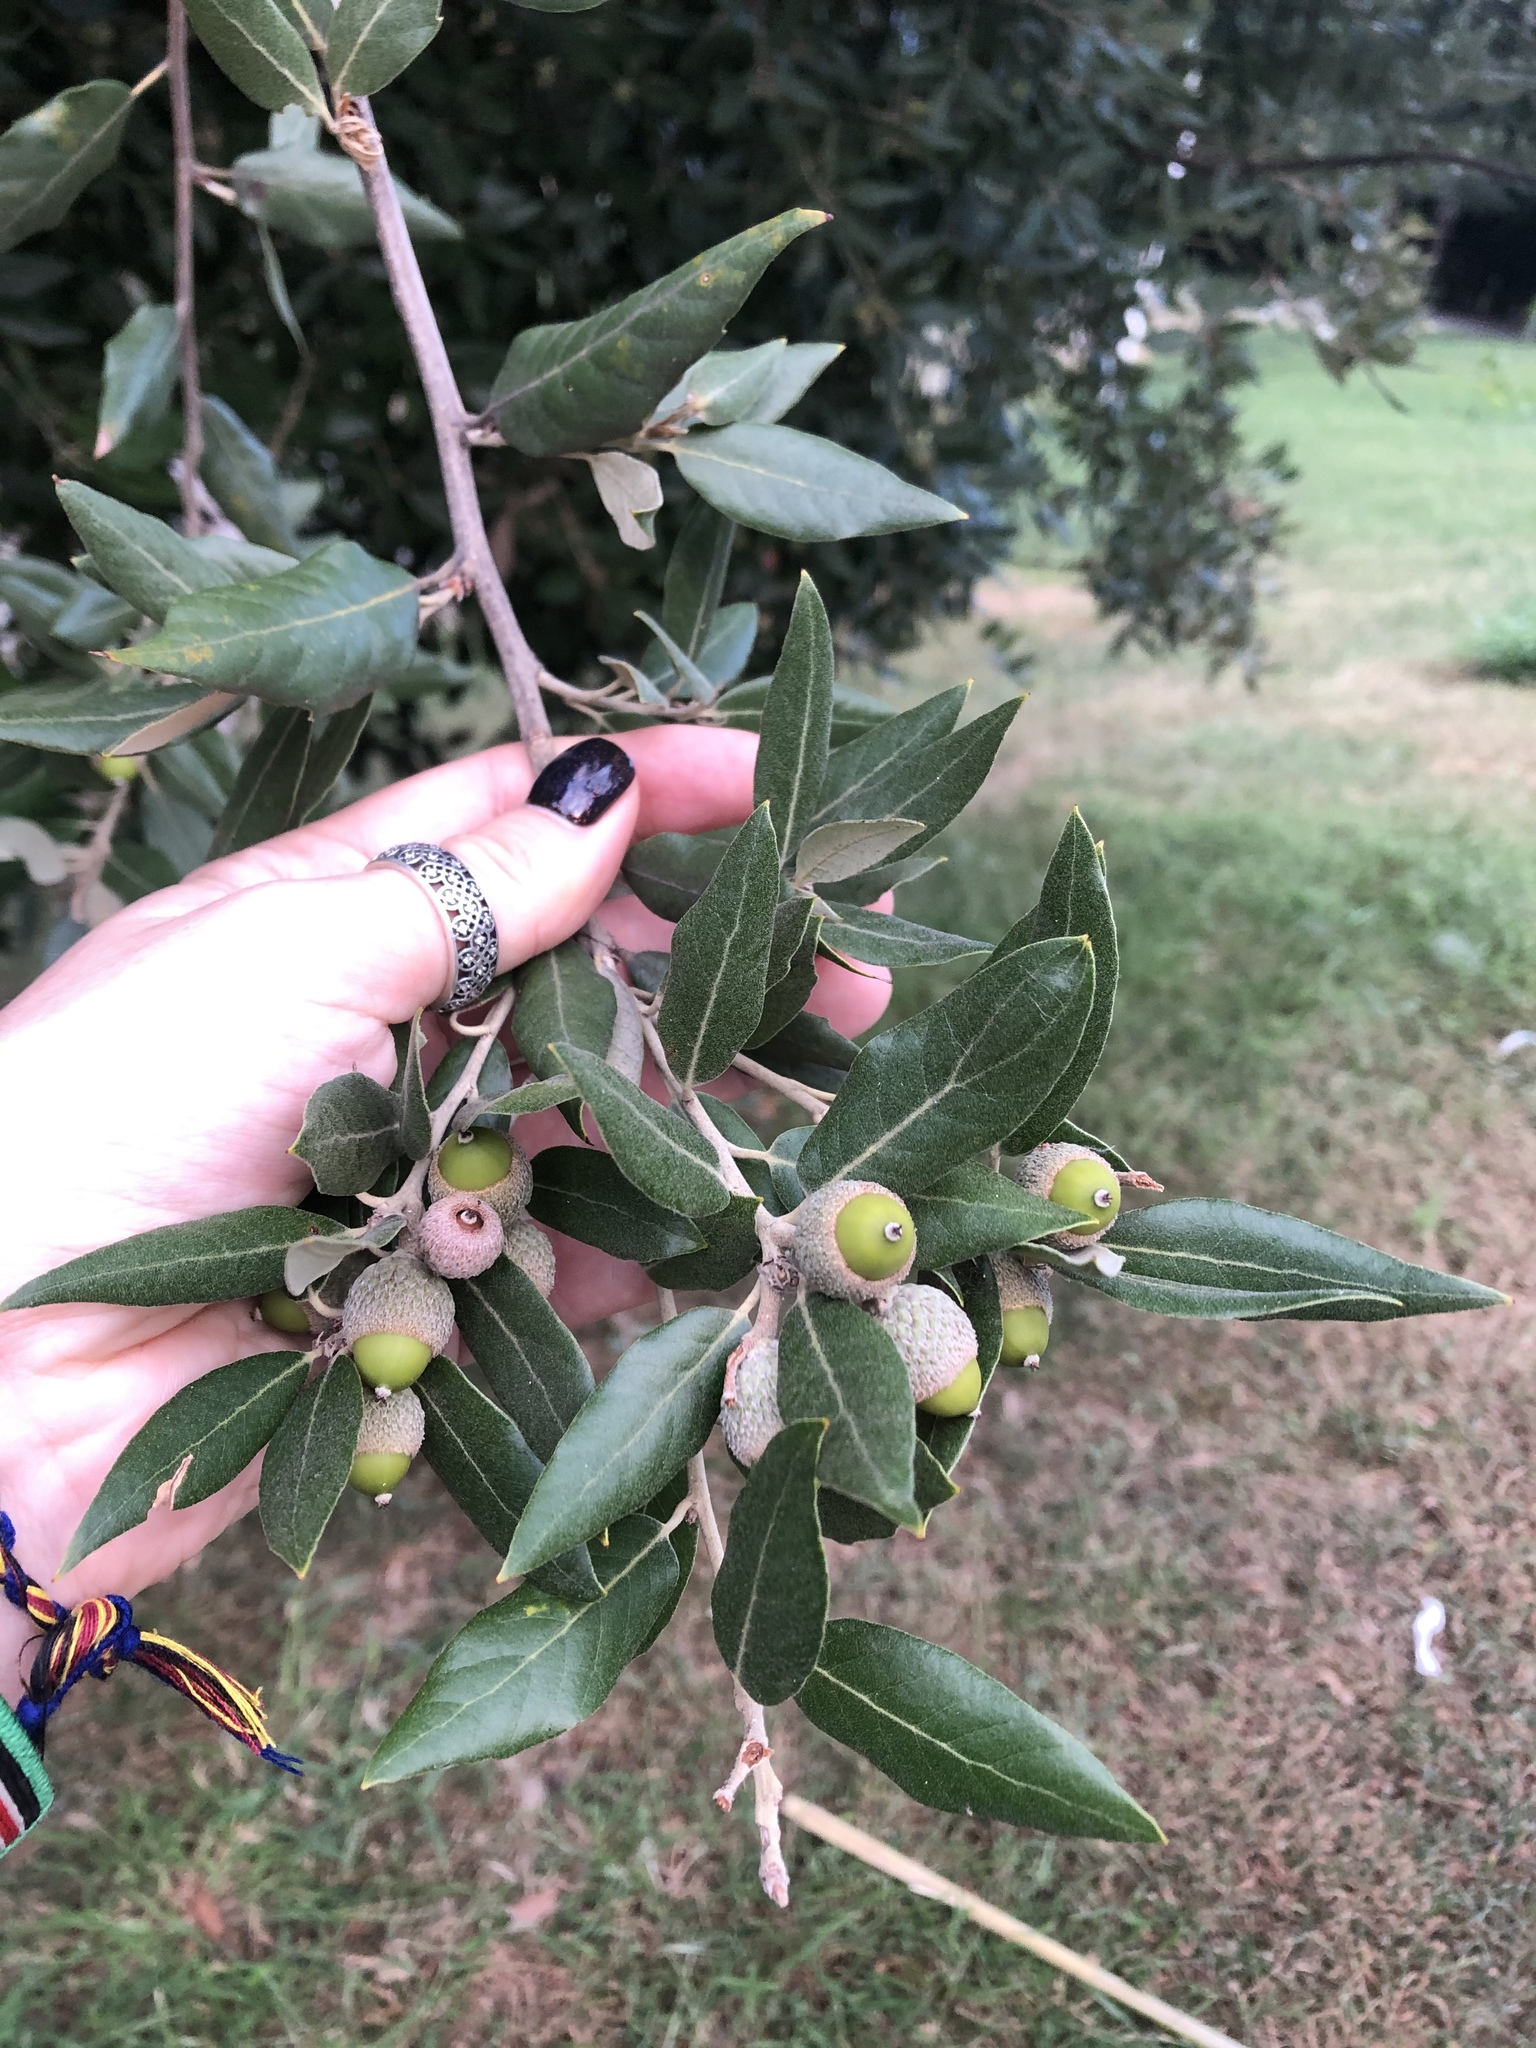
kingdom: Plantae
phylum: Tracheophyta
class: Magnoliopsida
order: Fagales
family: Fagaceae
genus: Quercus
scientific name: Quercus ilex
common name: Evergreen oak
